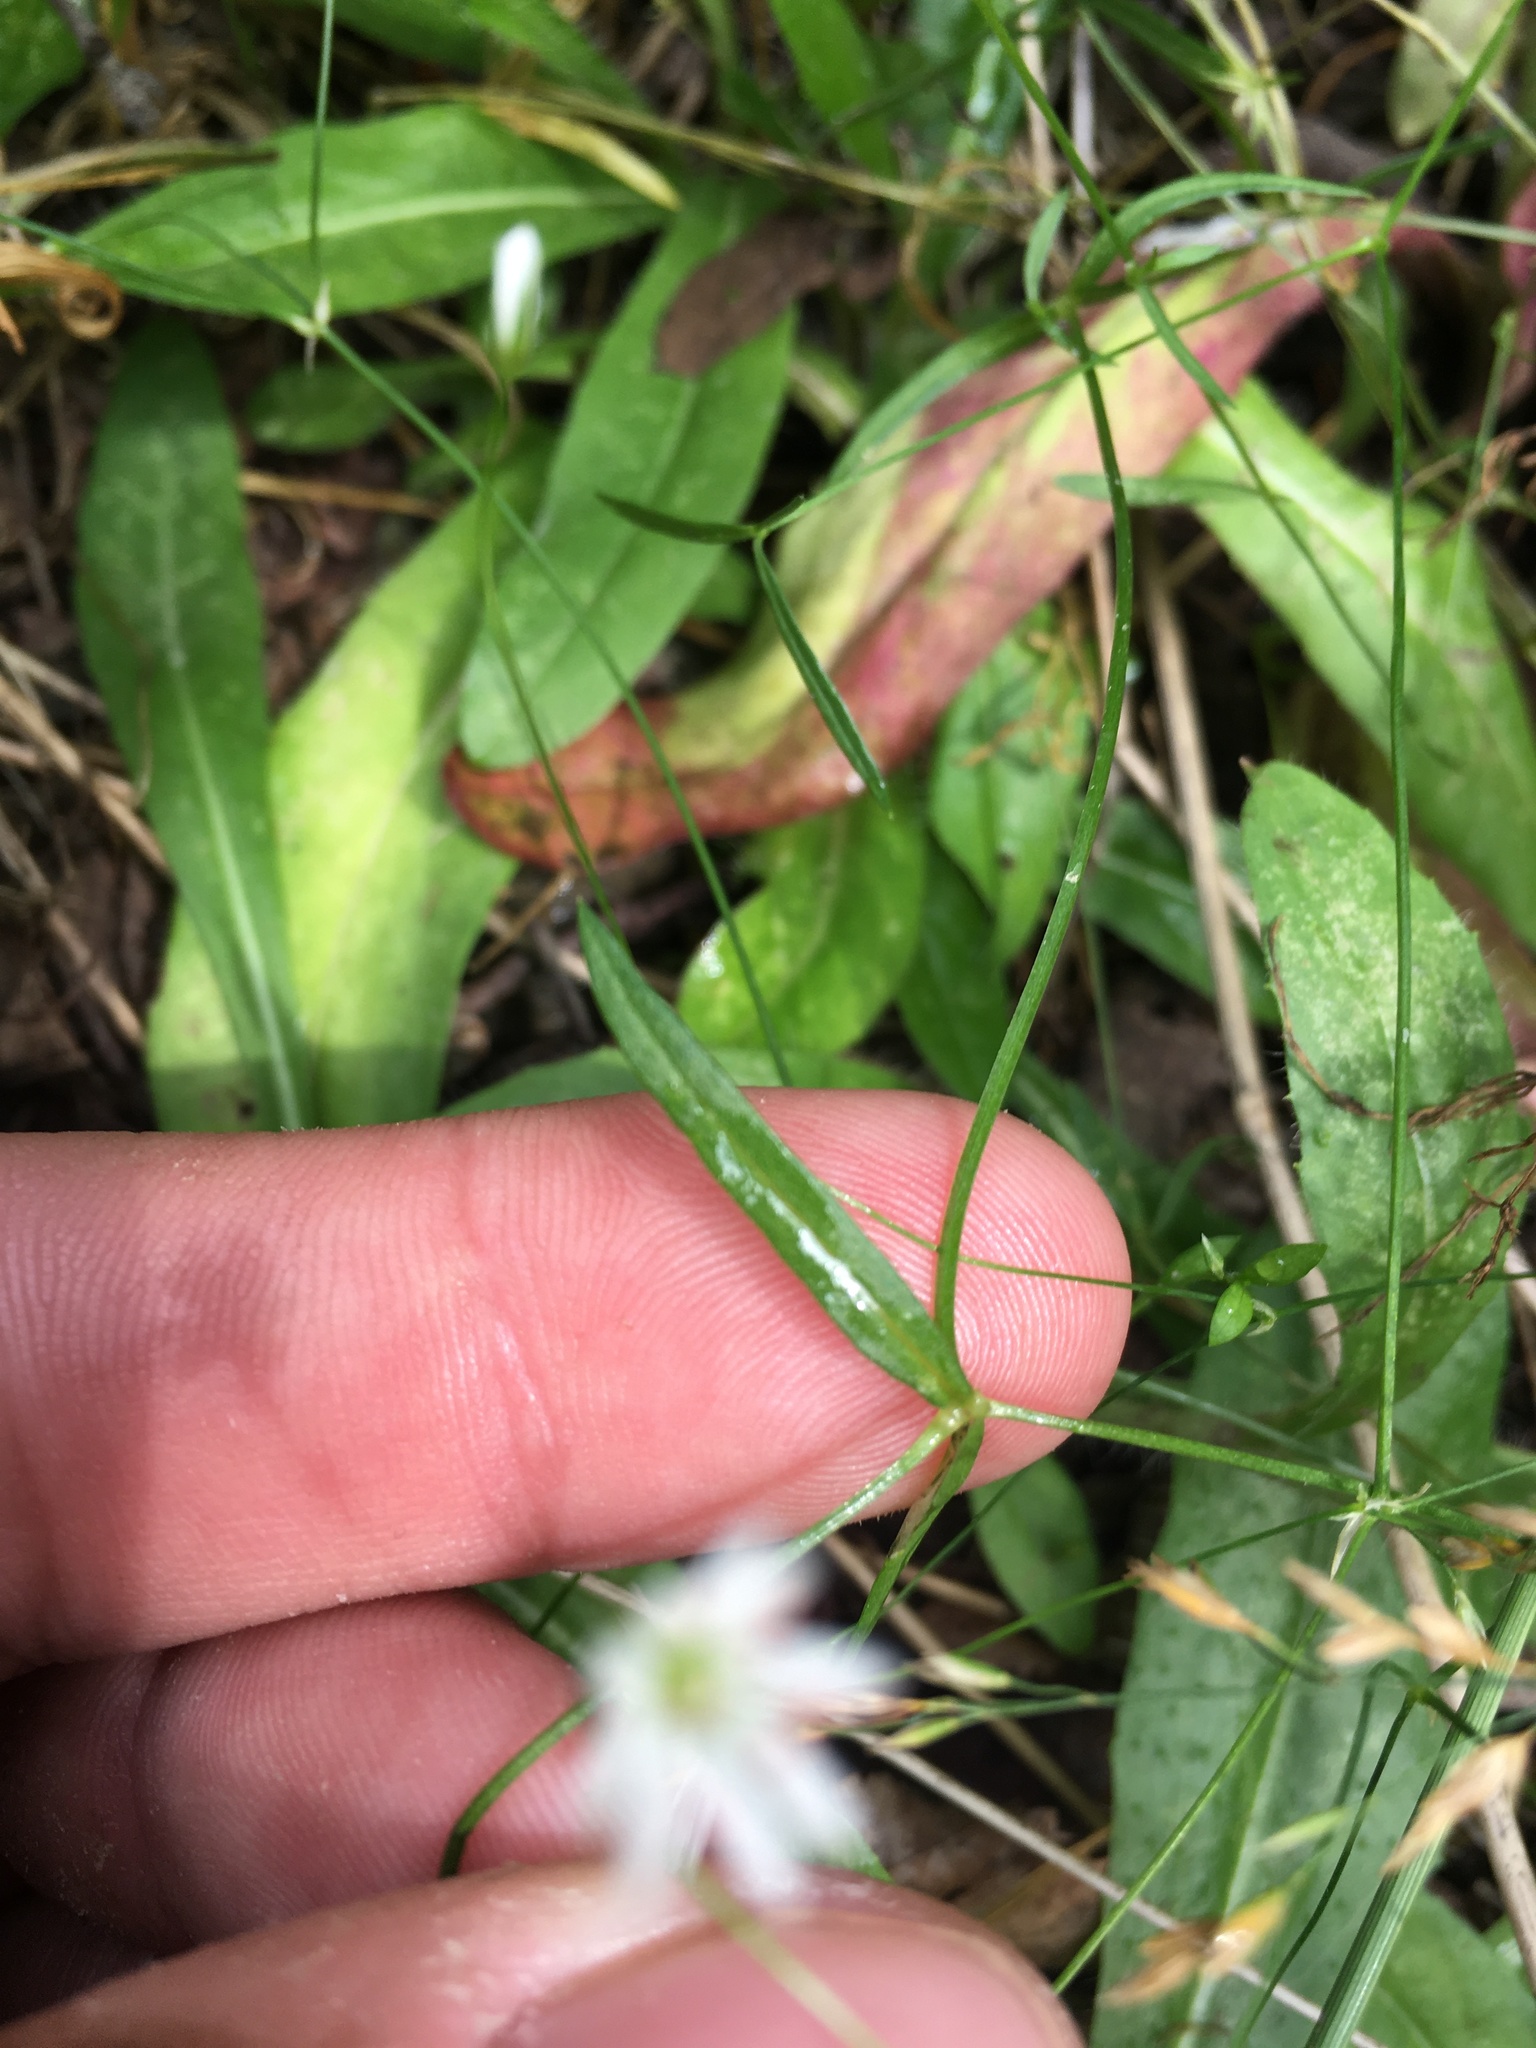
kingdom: Plantae
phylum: Tracheophyta
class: Magnoliopsida
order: Caryophyllales
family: Caryophyllaceae
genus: Stellaria
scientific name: Stellaria graminea
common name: Grass-like starwort
